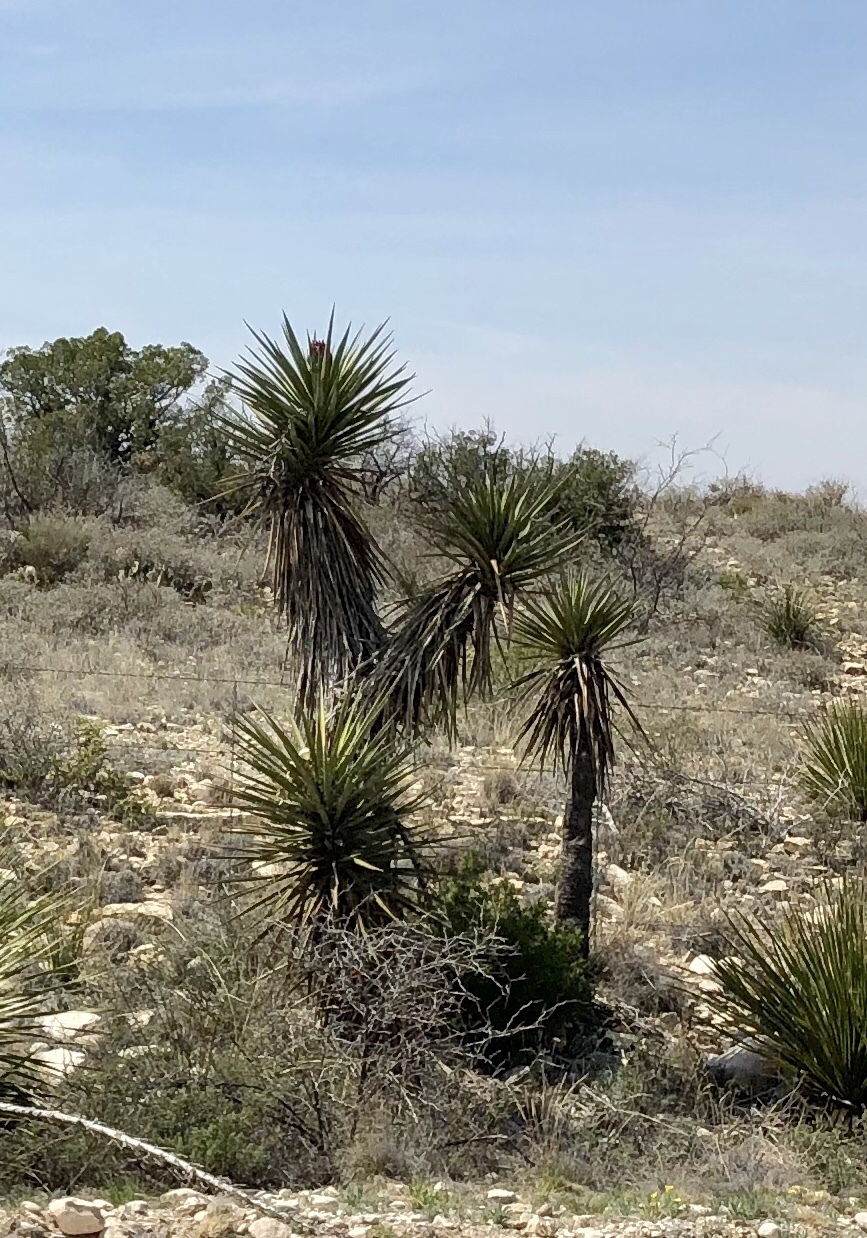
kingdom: Plantae
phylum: Tracheophyta
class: Liliopsida
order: Asparagales
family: Asparagaceae
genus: Yucca
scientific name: Yucca treculiana
